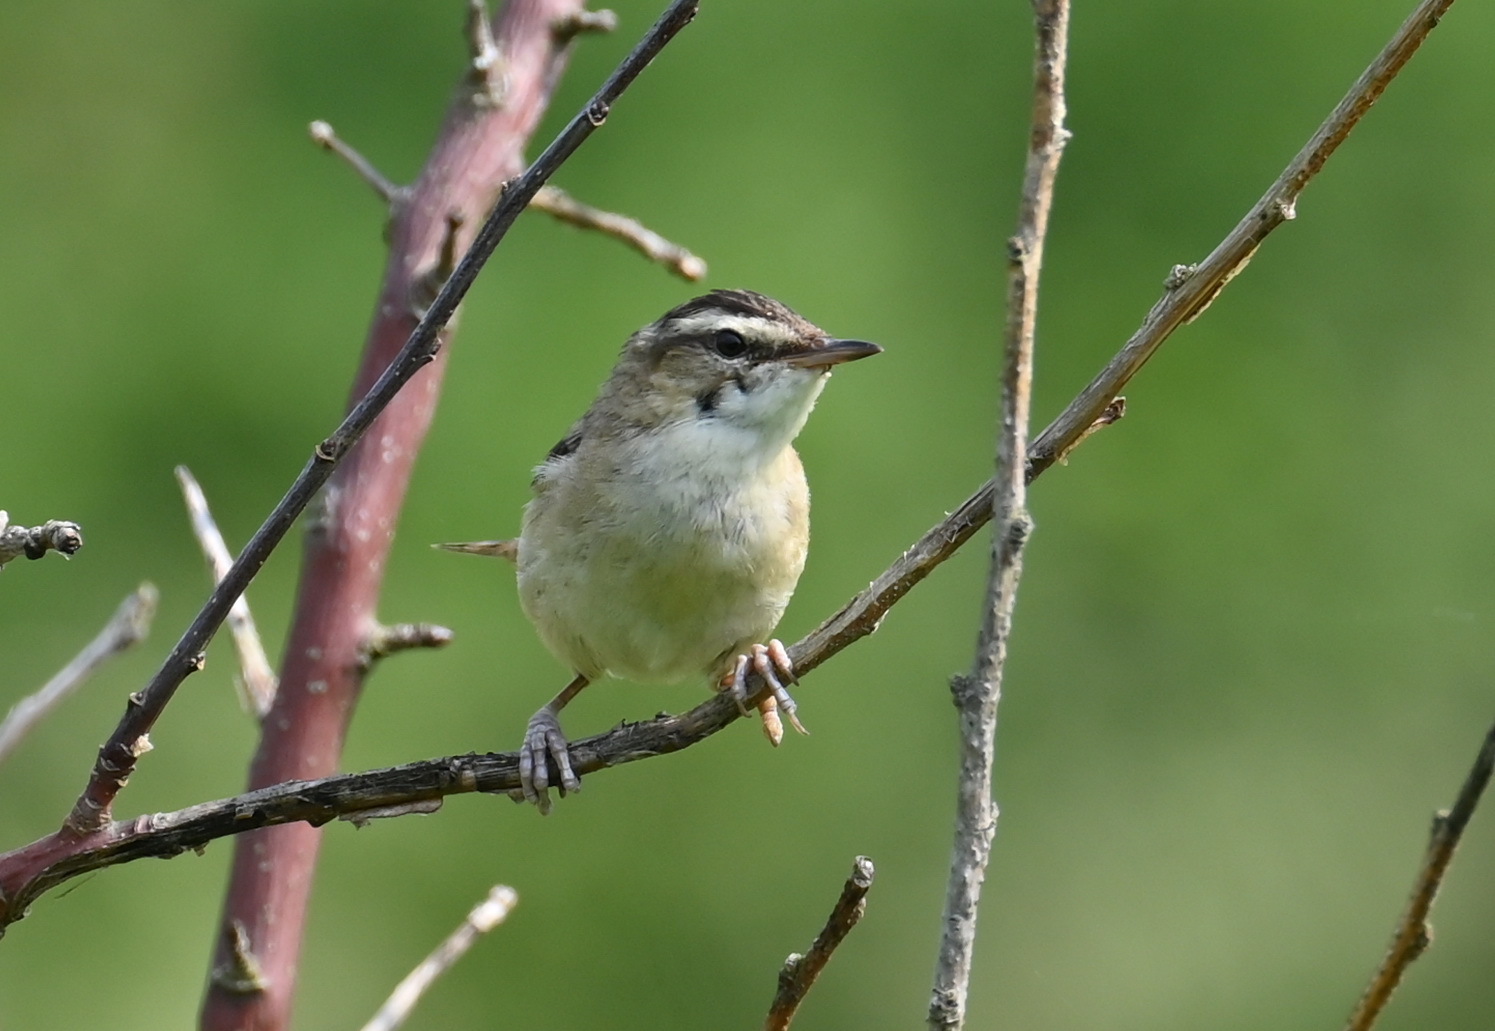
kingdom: Animalia
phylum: Chordata
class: Aves
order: Passeriformes
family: Acrocephalidae
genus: Acrocephalus
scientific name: Acrocephalus schoenobaenus
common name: Sedge warbler
